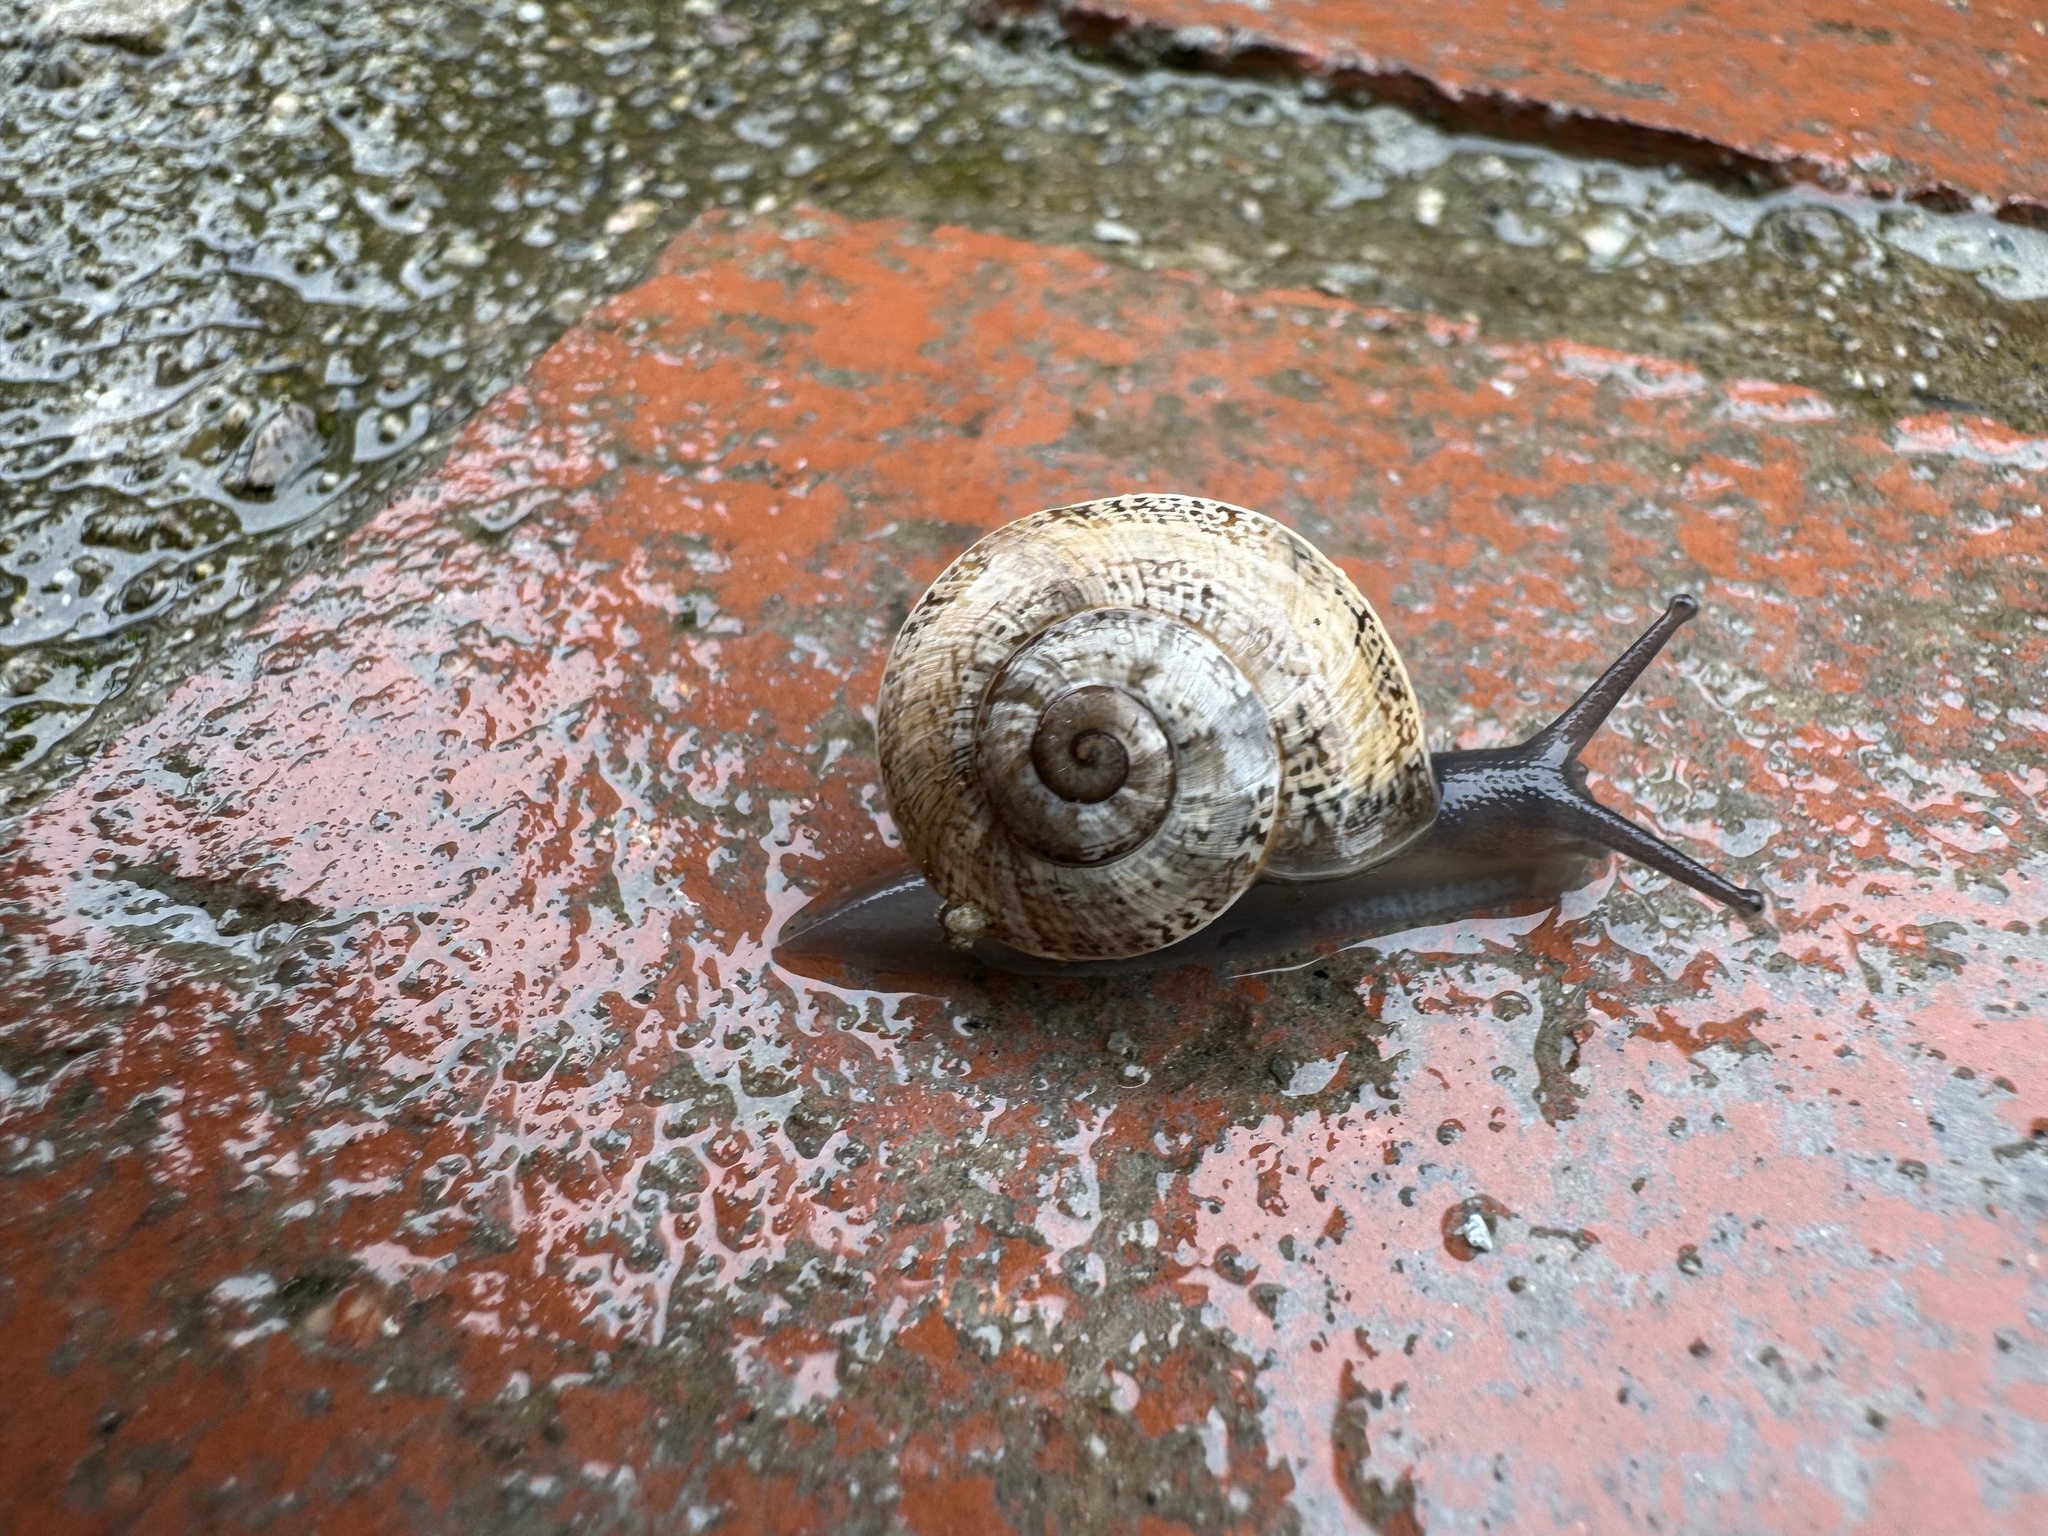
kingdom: Animalia
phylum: Mollusca
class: Gastropoda
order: Stylommatophora
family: Helicidae
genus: Otala
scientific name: Otala lactea
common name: Milk snail
